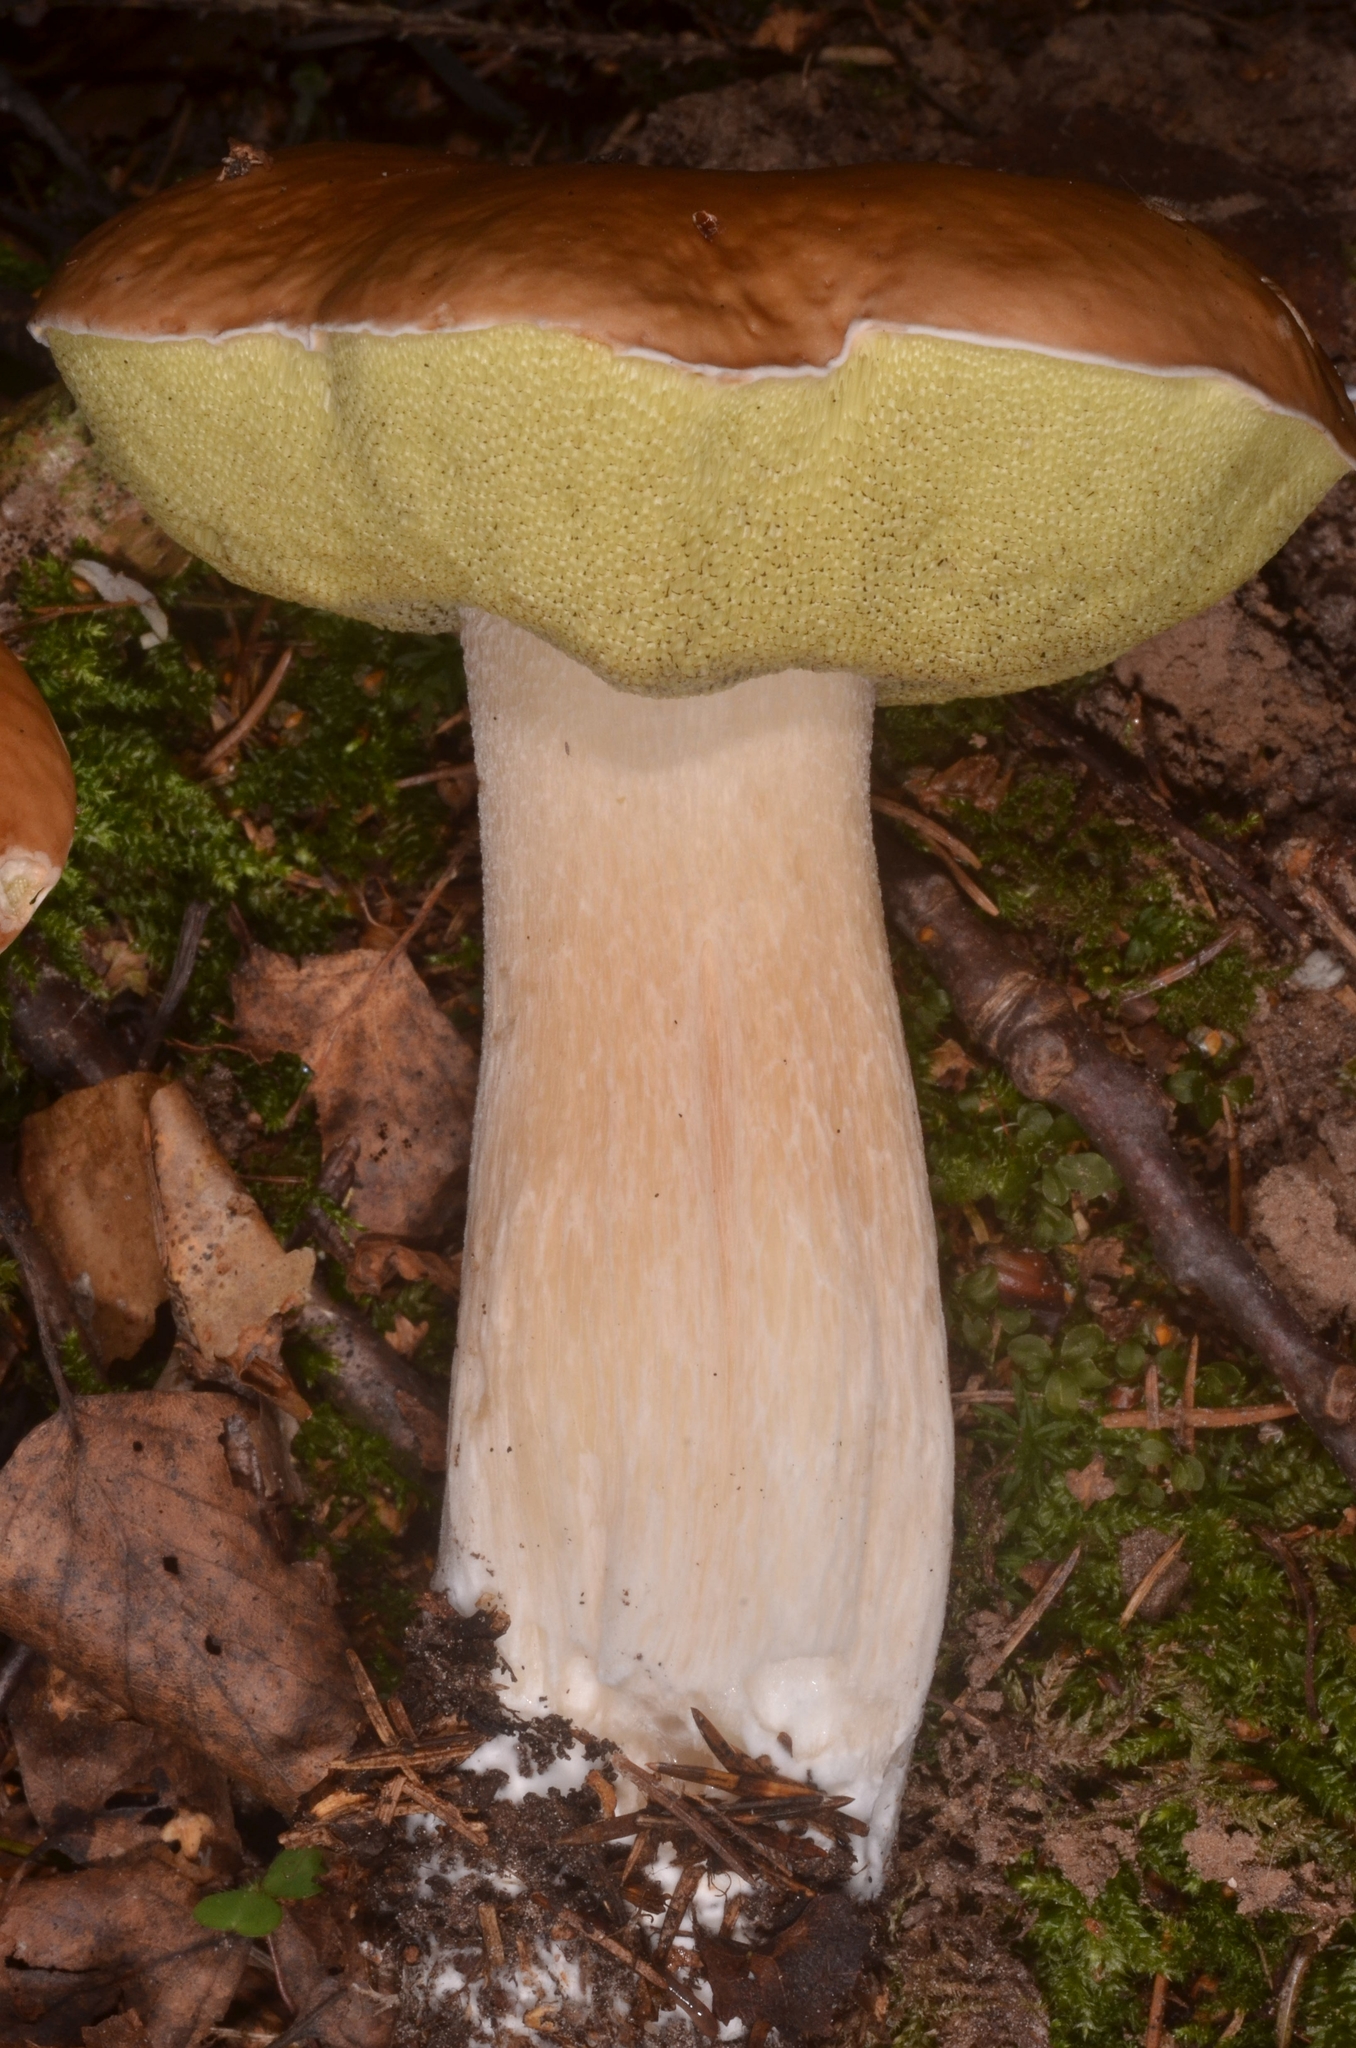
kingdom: Fungi
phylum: Basidiomycota
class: Agaricomycetes
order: Boletales
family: Boletaceae
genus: Boletus
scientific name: Boletus edulis
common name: Cep
